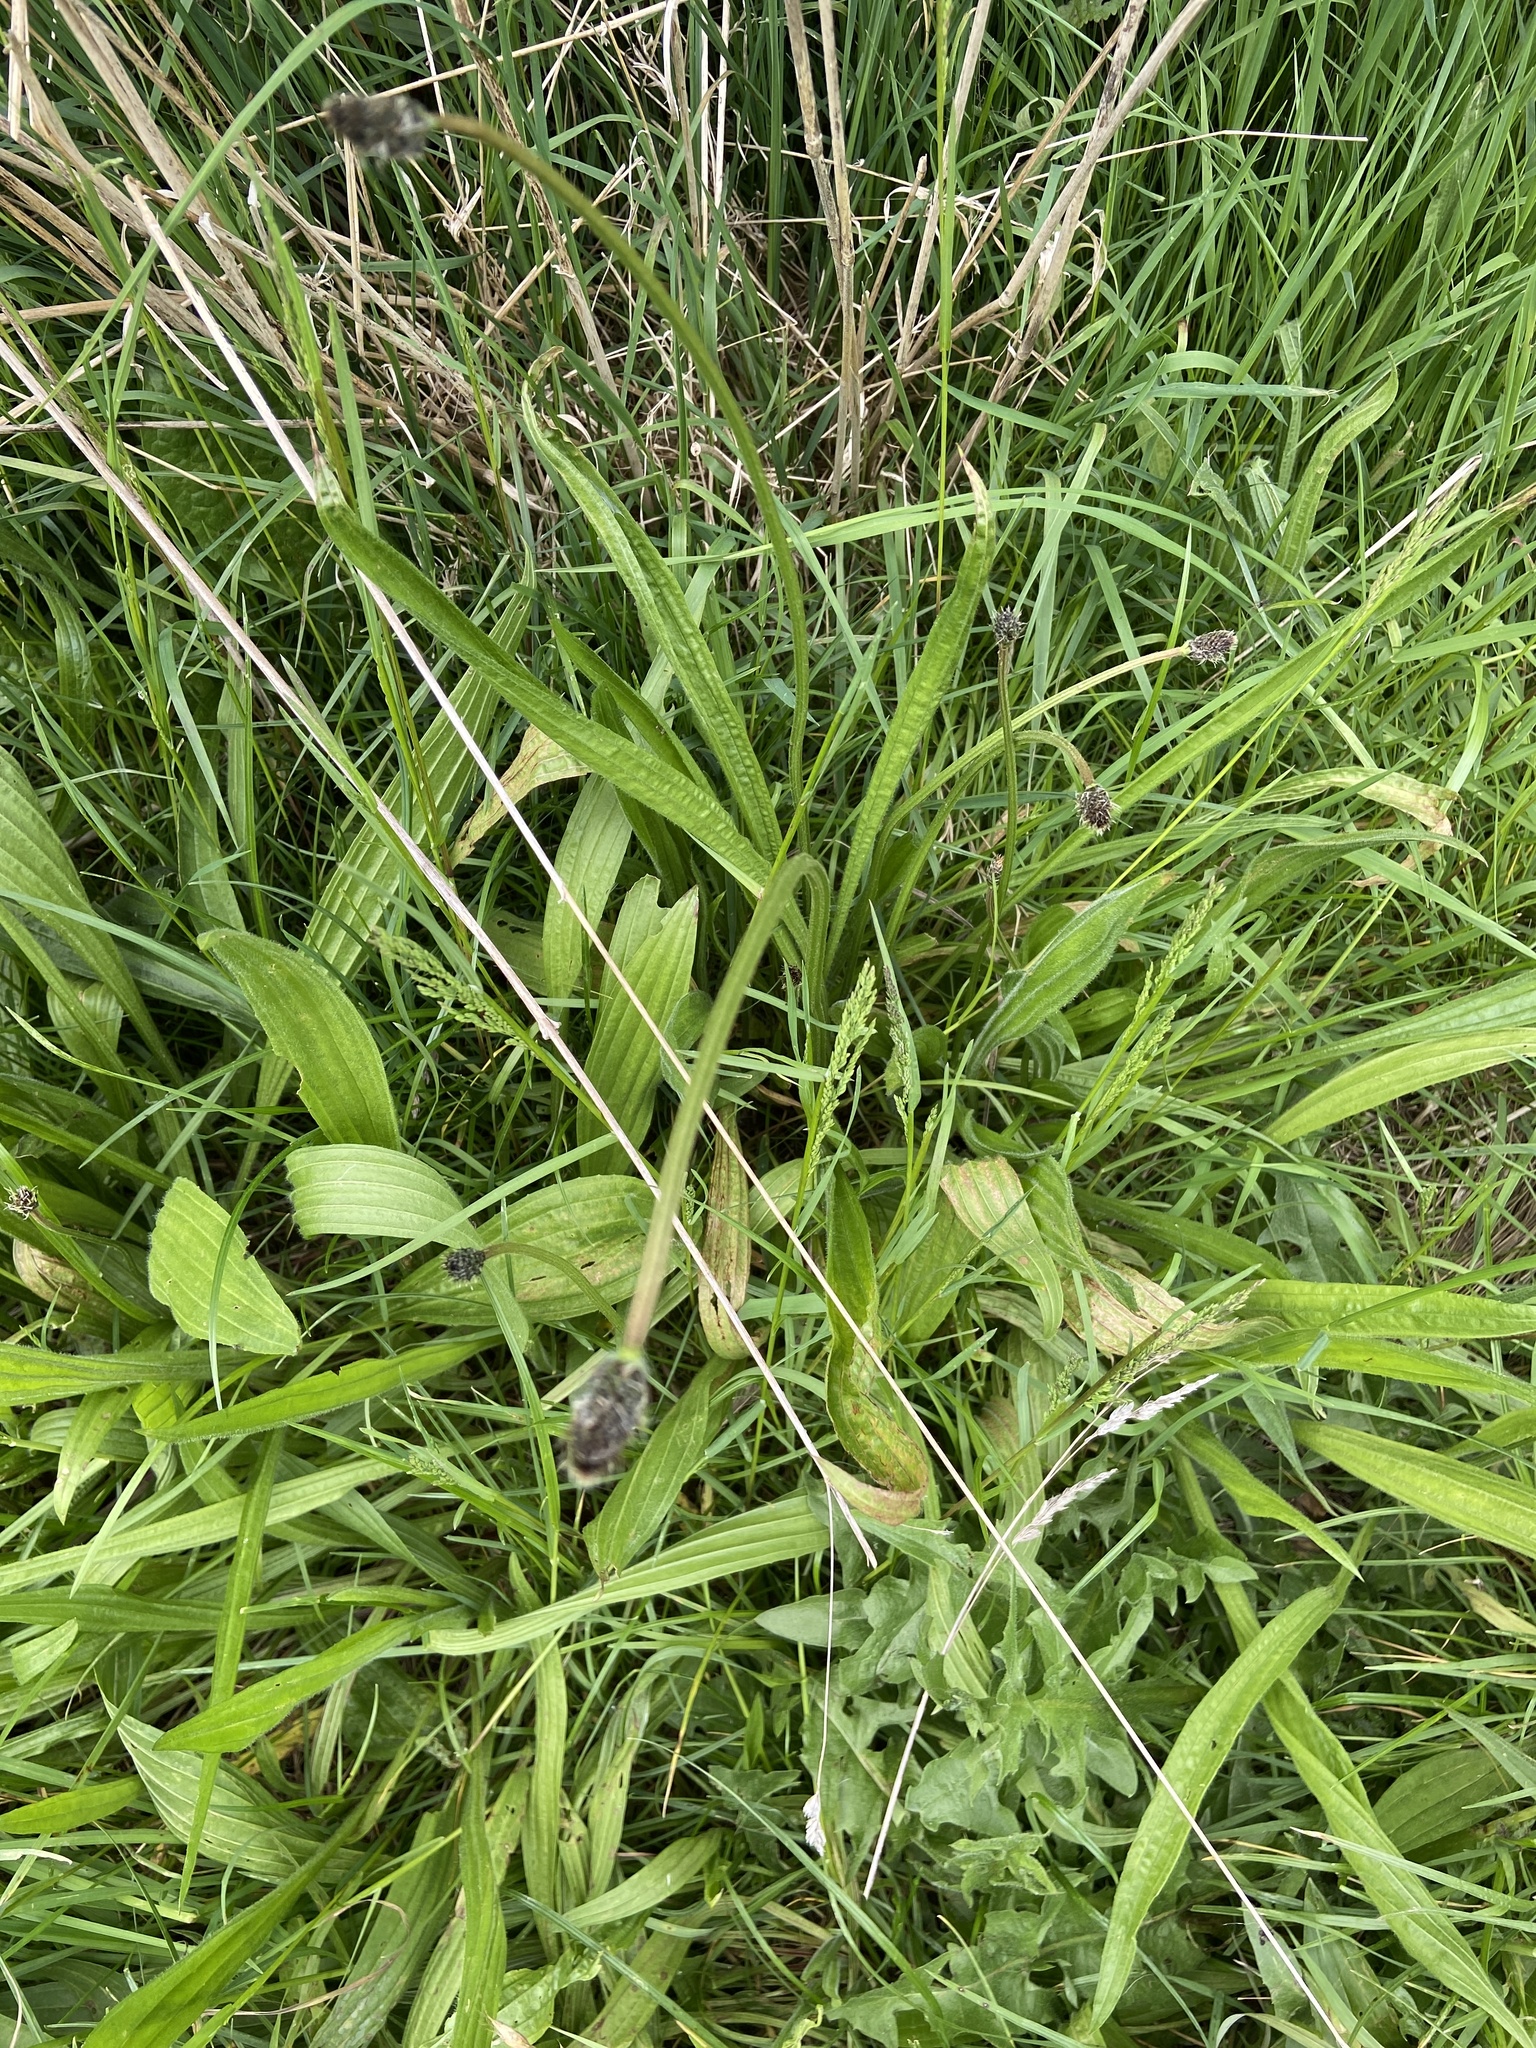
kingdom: Plantae
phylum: Tracheophyta
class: Magnoliopsida
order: Lamiales
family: Plantaginaceae
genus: Plantago
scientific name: Plantago lanceolata
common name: Ribwort plantain
